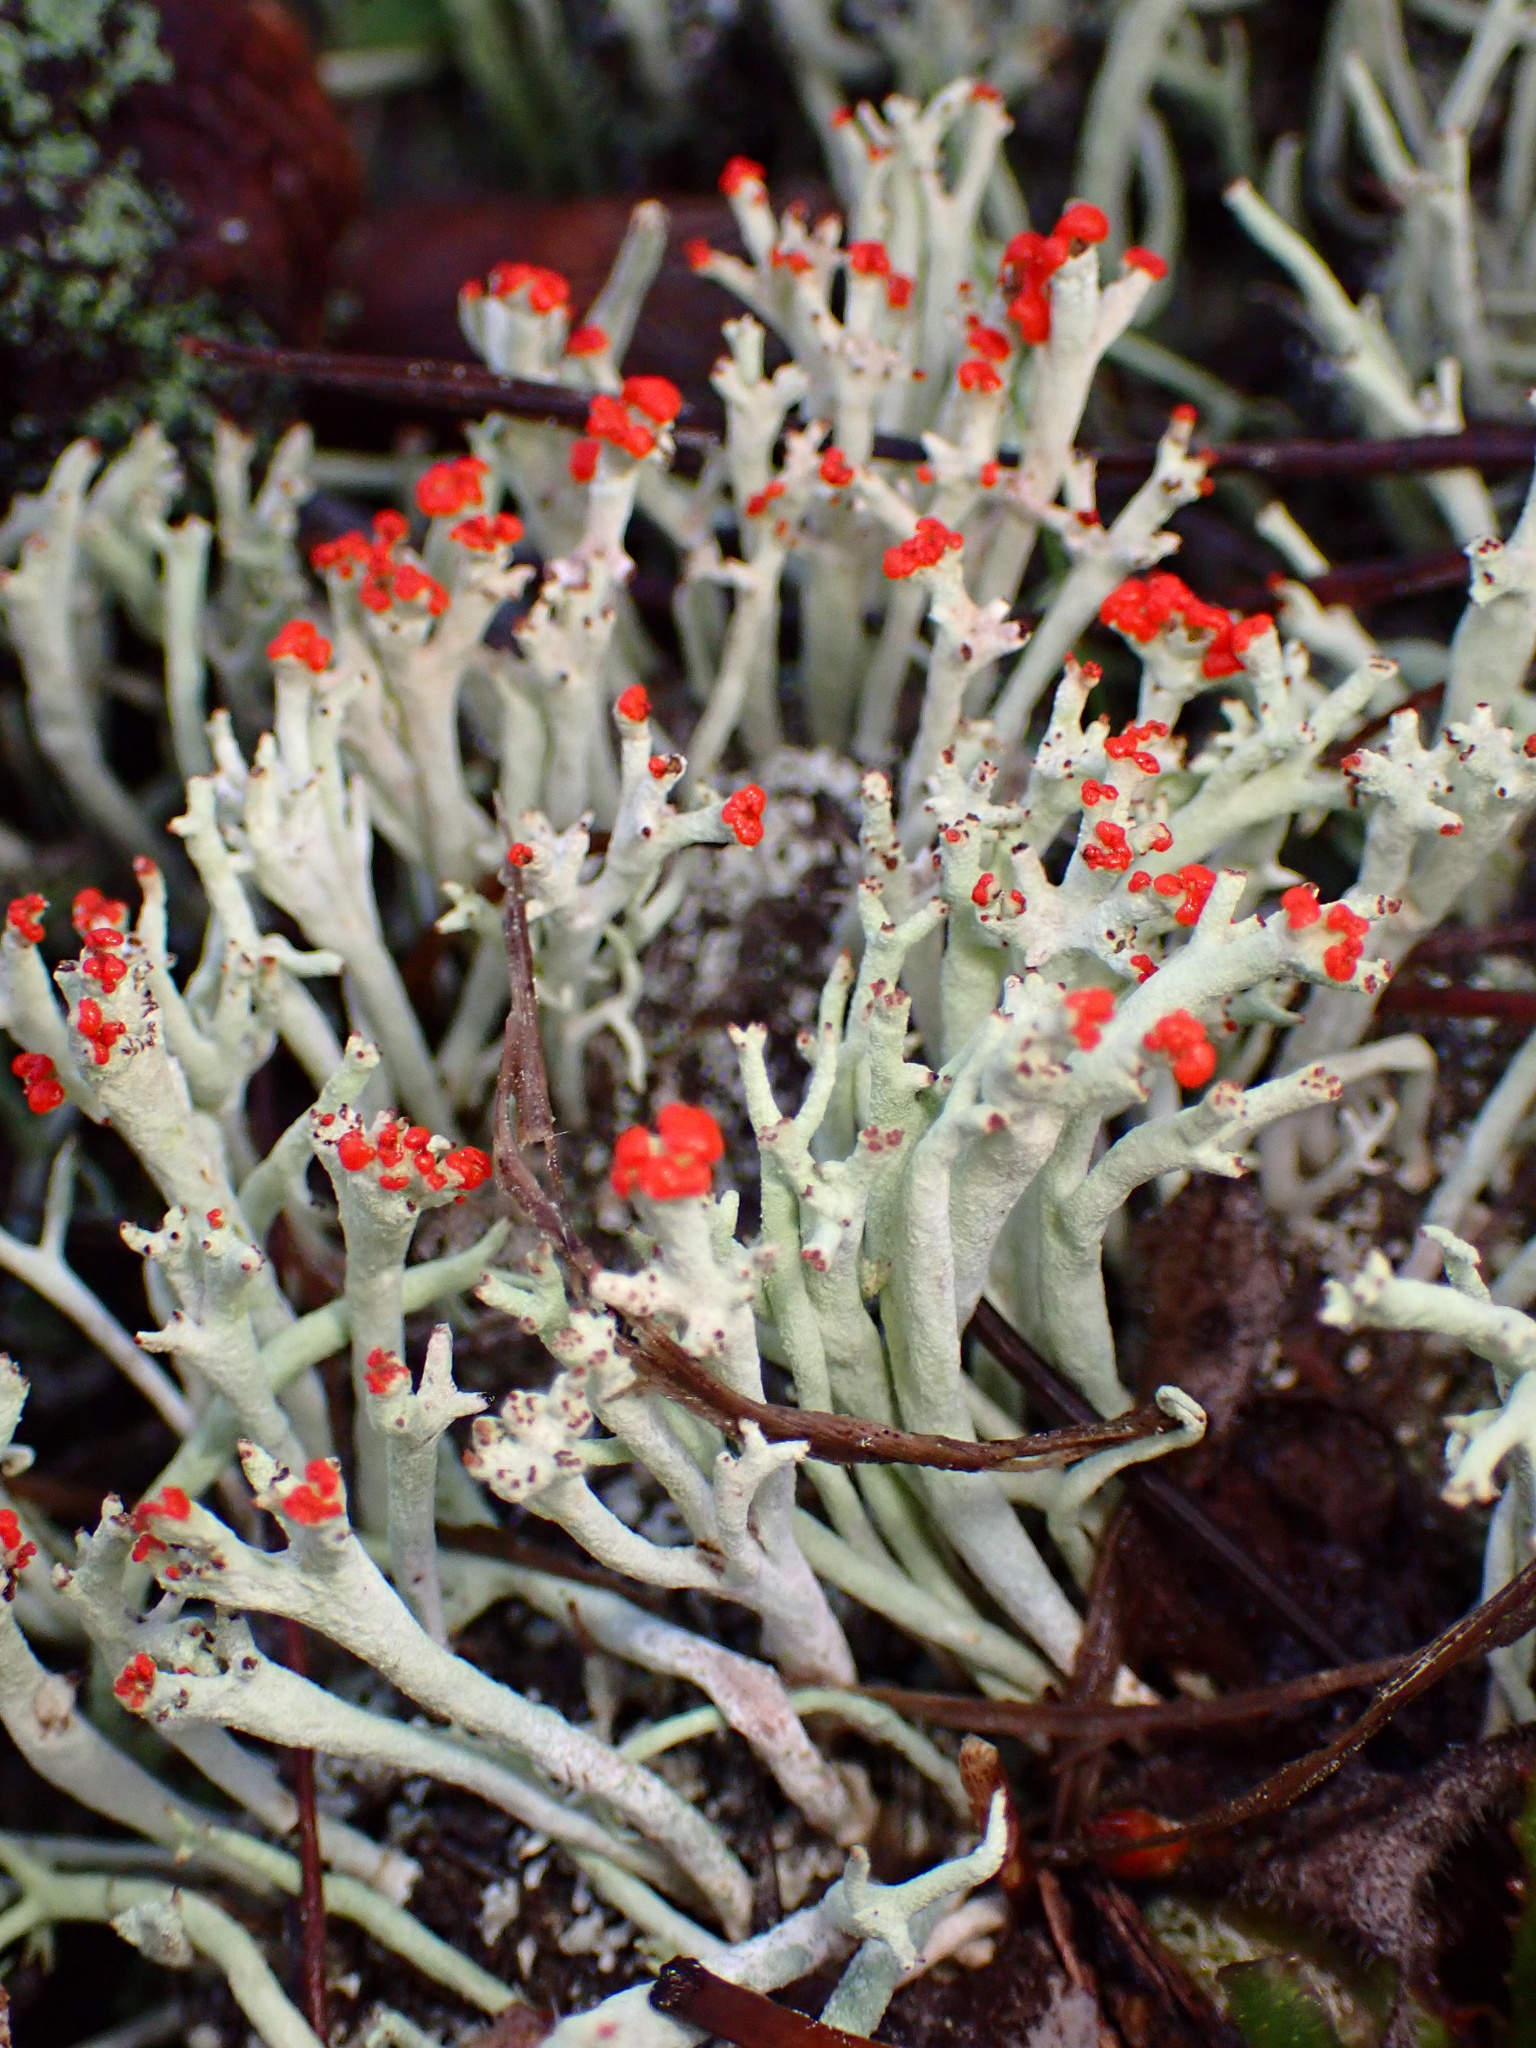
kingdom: Fungi
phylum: Ascomycota
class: Lecanoromycetes
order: Lecanorales
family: Cladoniaceae
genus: Cladonia
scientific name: Cladonia macilenta
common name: Lipstick powderhorn
